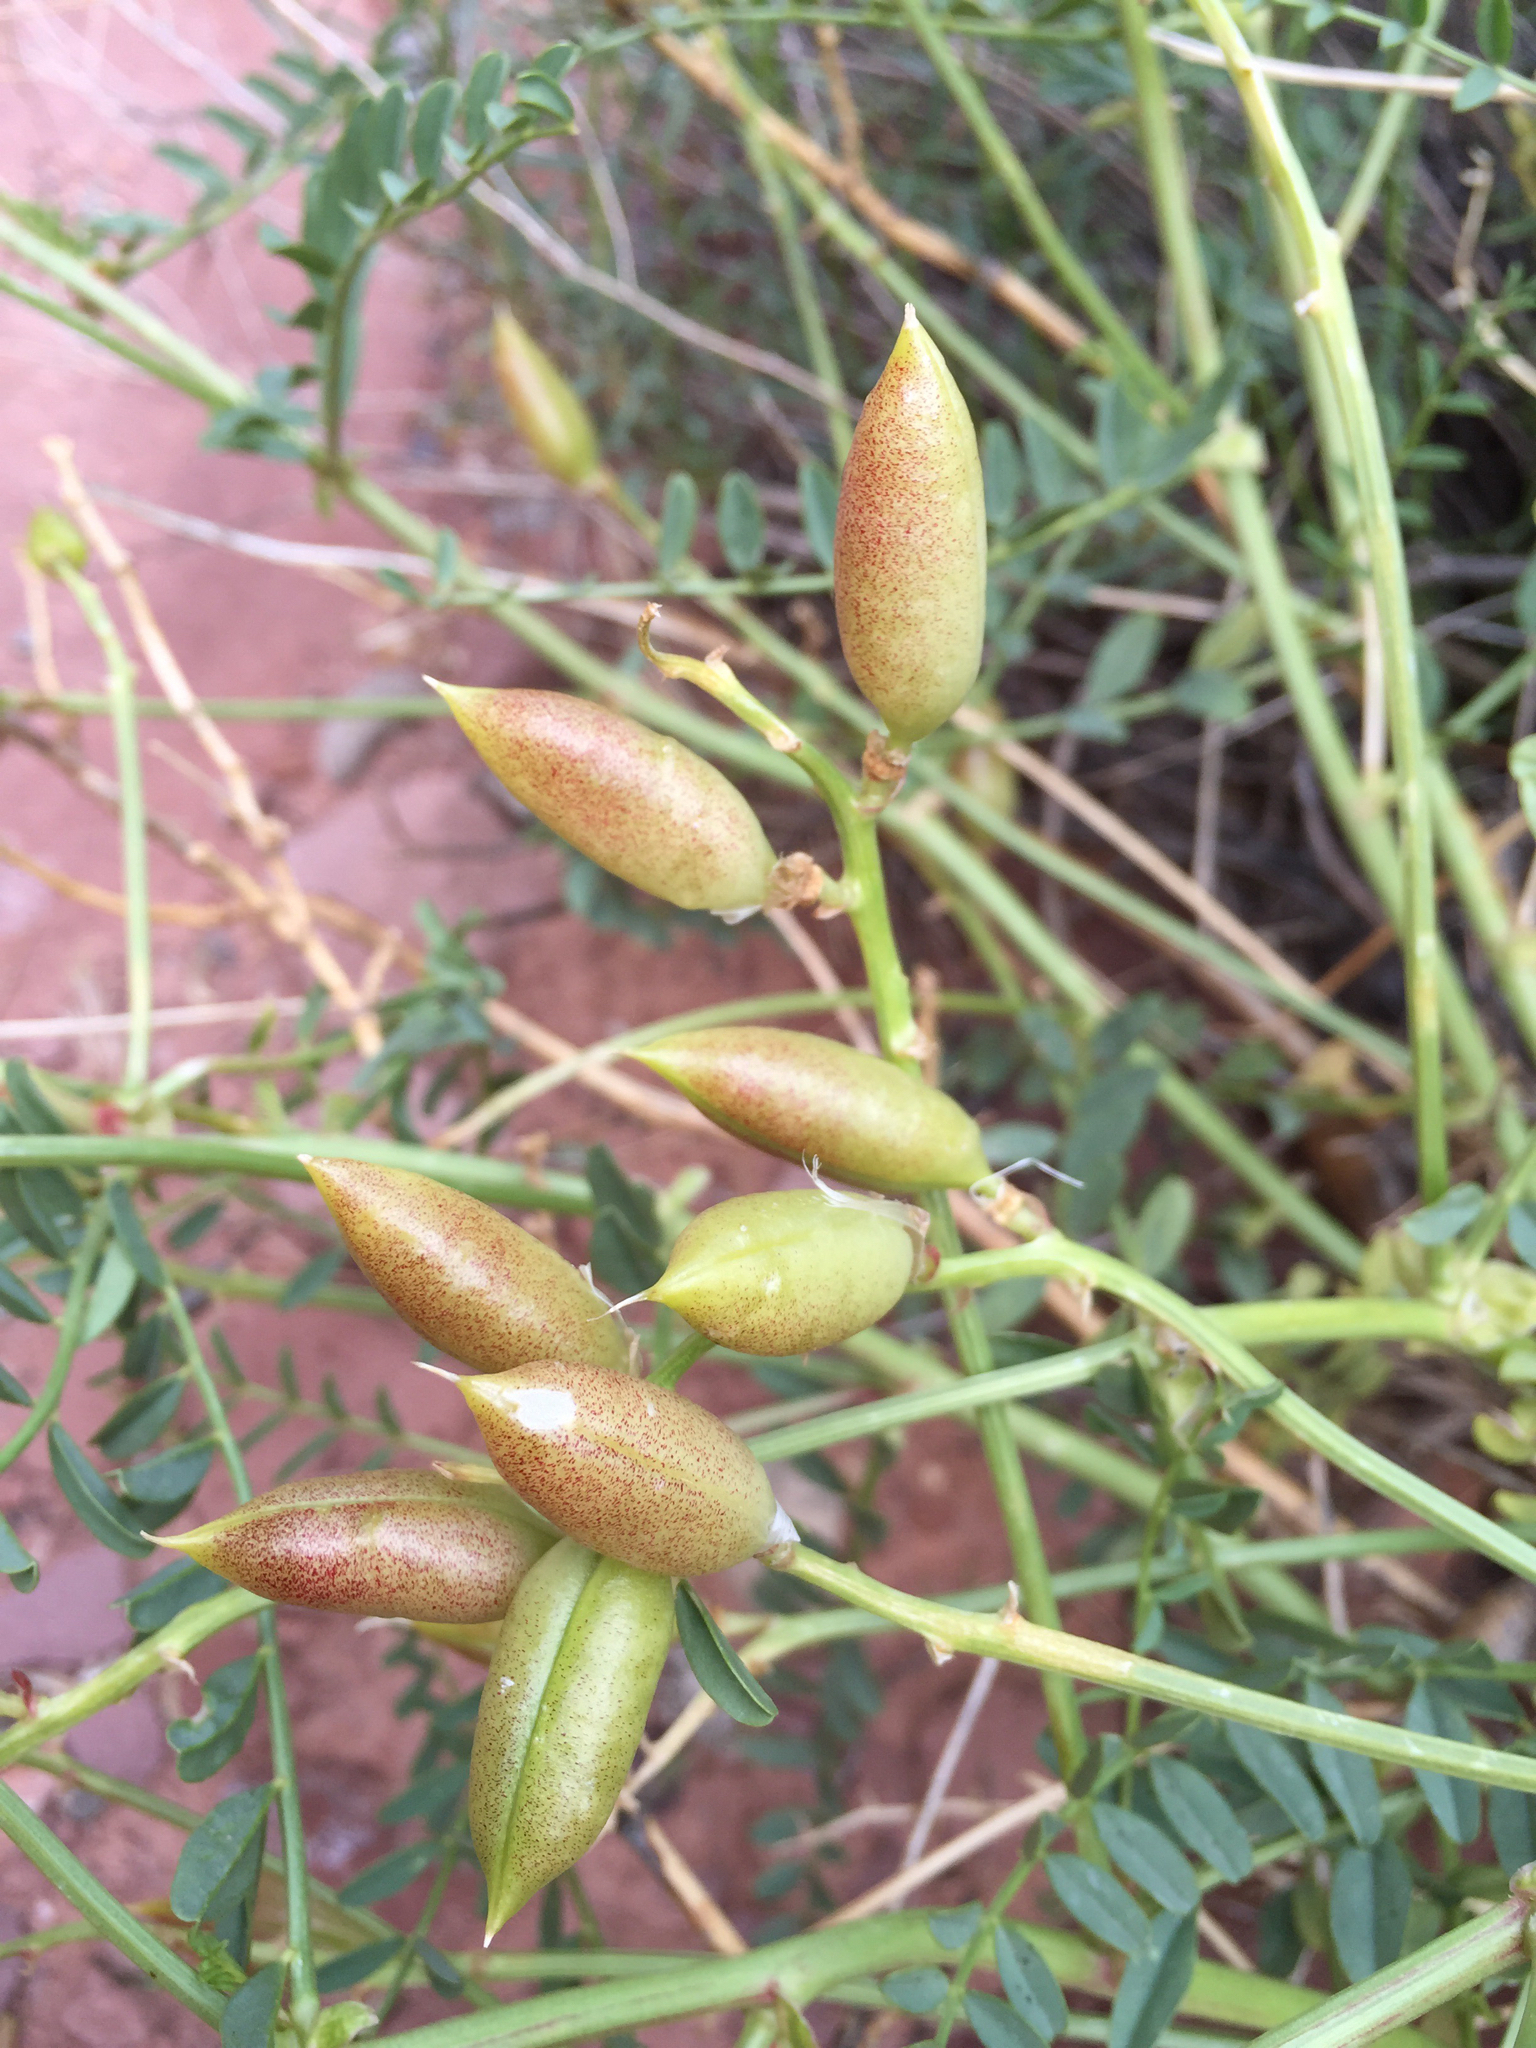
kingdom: Plantae
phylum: Tracheophyta
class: Magnoliopsida
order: Fabales
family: Fabaceae
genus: Astragalus
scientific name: Astragalus preussii
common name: Preuss's milk-vetch
